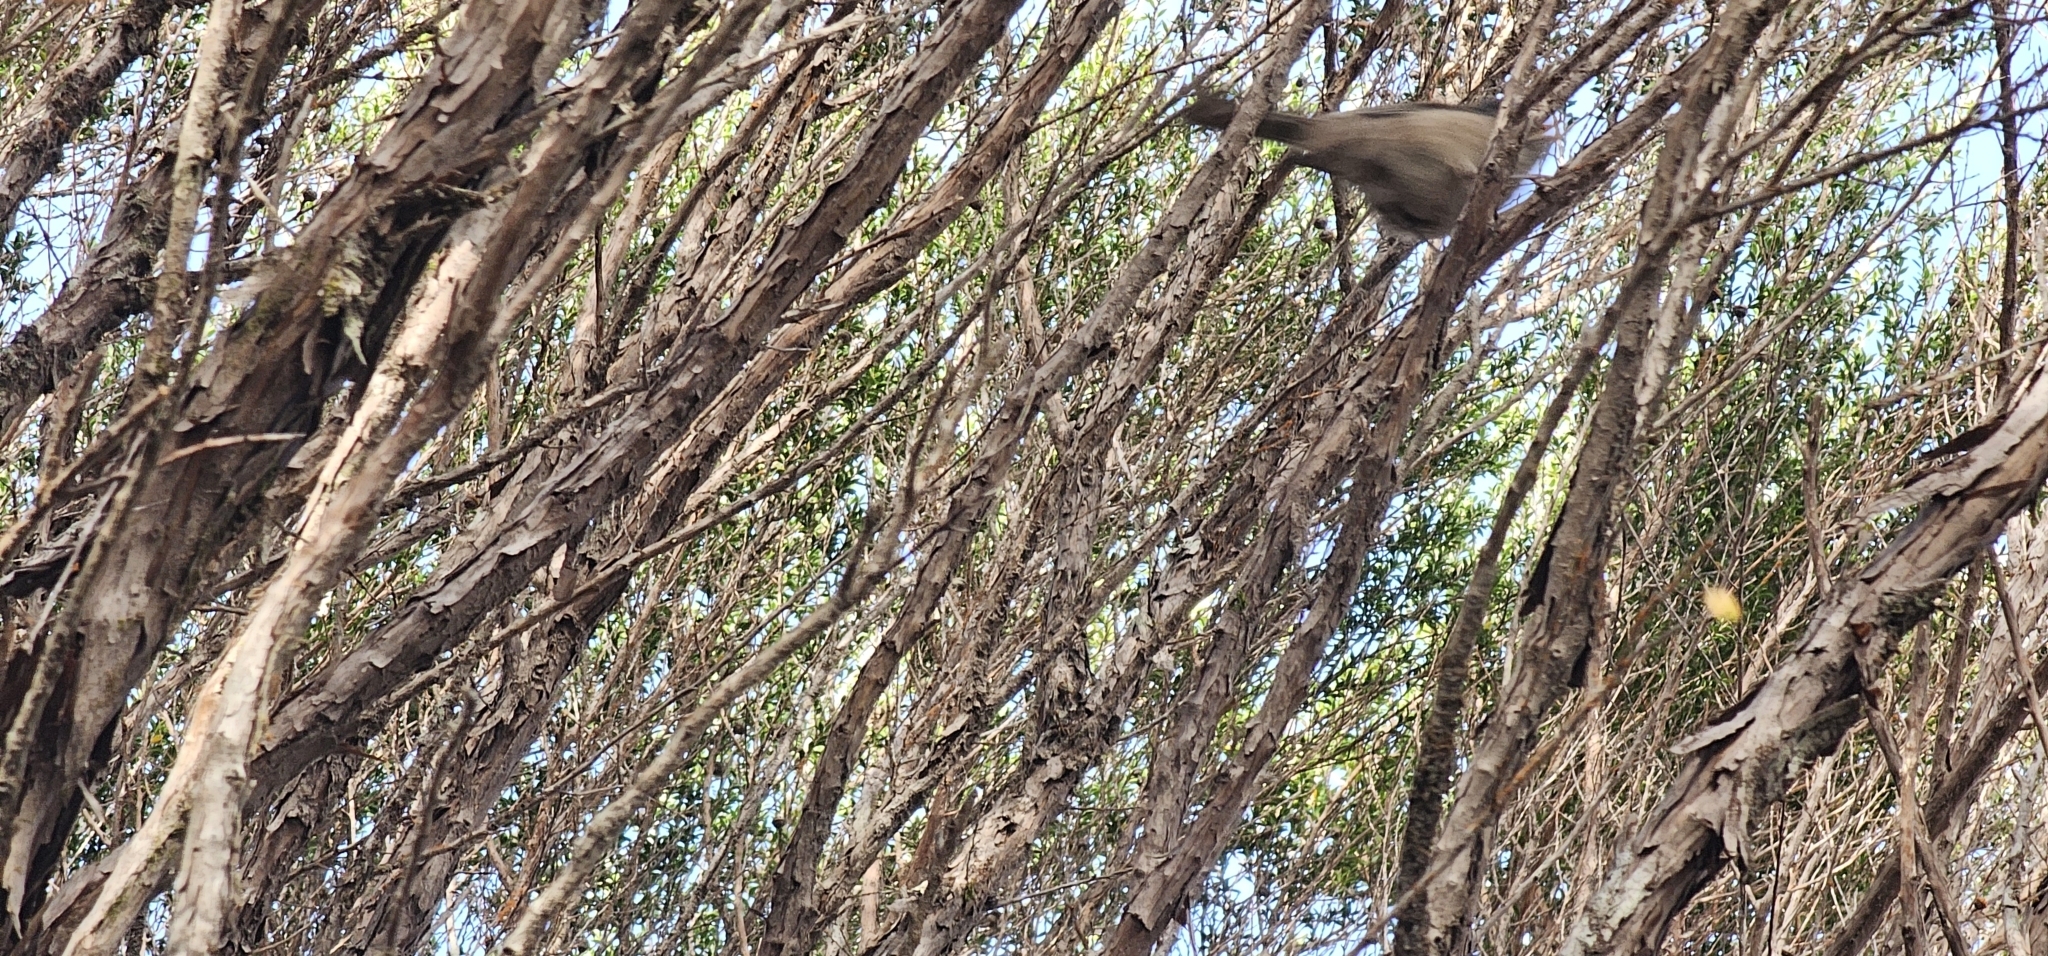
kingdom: Animalia
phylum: Chordata
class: Aves
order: Passeriformes
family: Acanthizidae
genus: Finschia
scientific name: Finschia novaeseelandiae
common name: Pipipi
